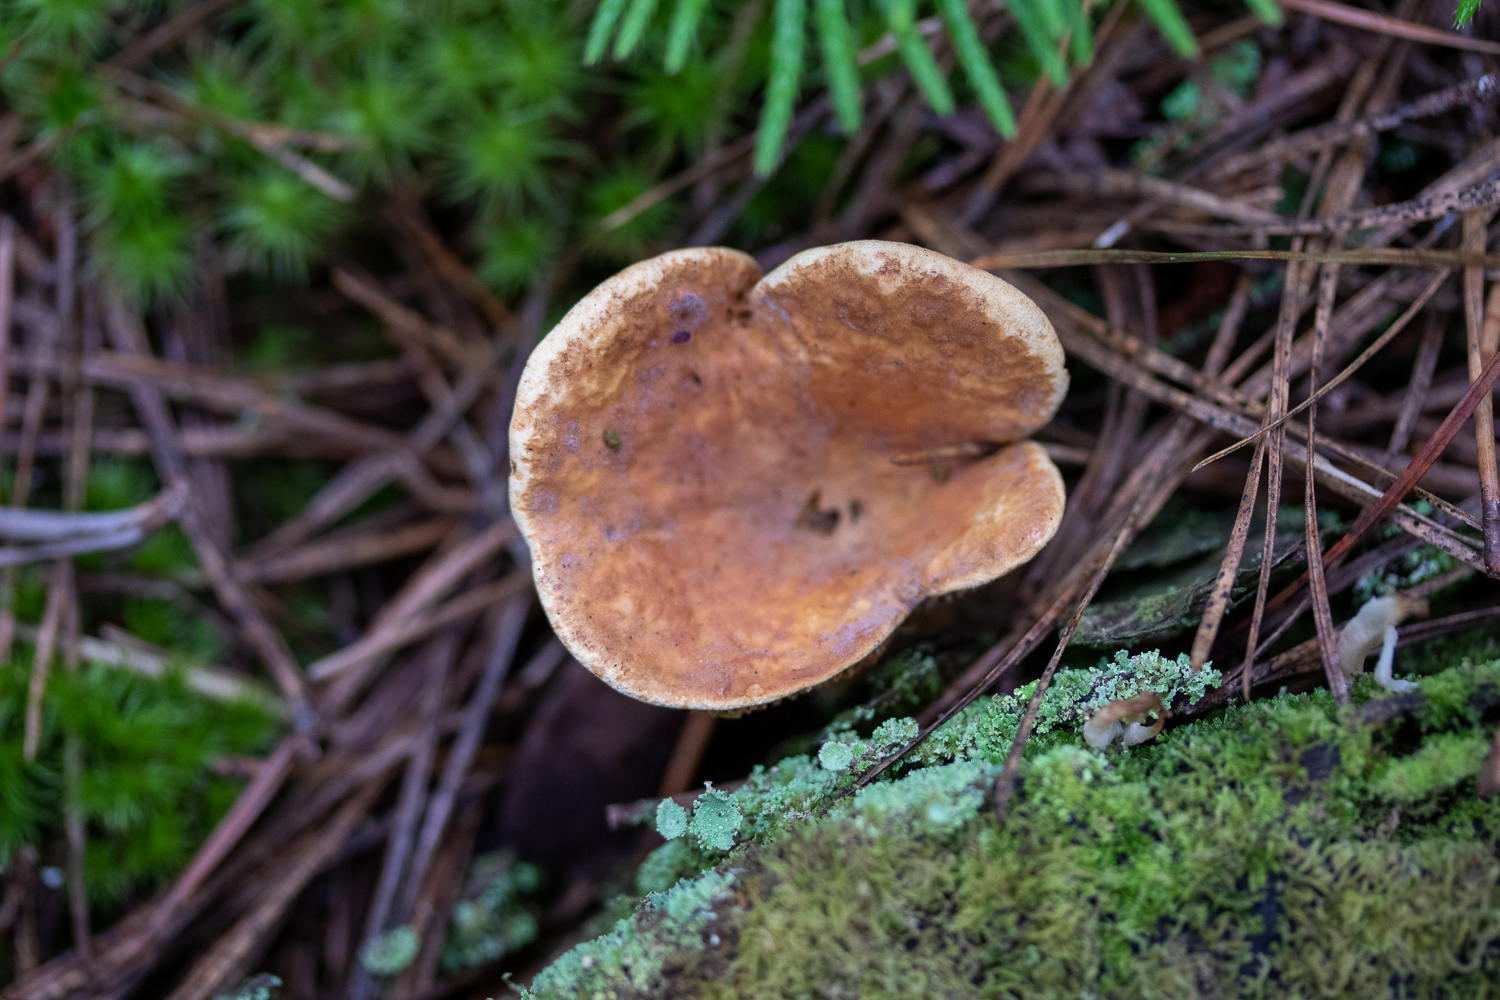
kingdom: Fungi
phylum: Basidiomycota
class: Agaricomycetes
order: Boletales
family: Tapinellaceae
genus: Tapinella
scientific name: Tapinella atrotomentosa
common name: Velvet rollrim
